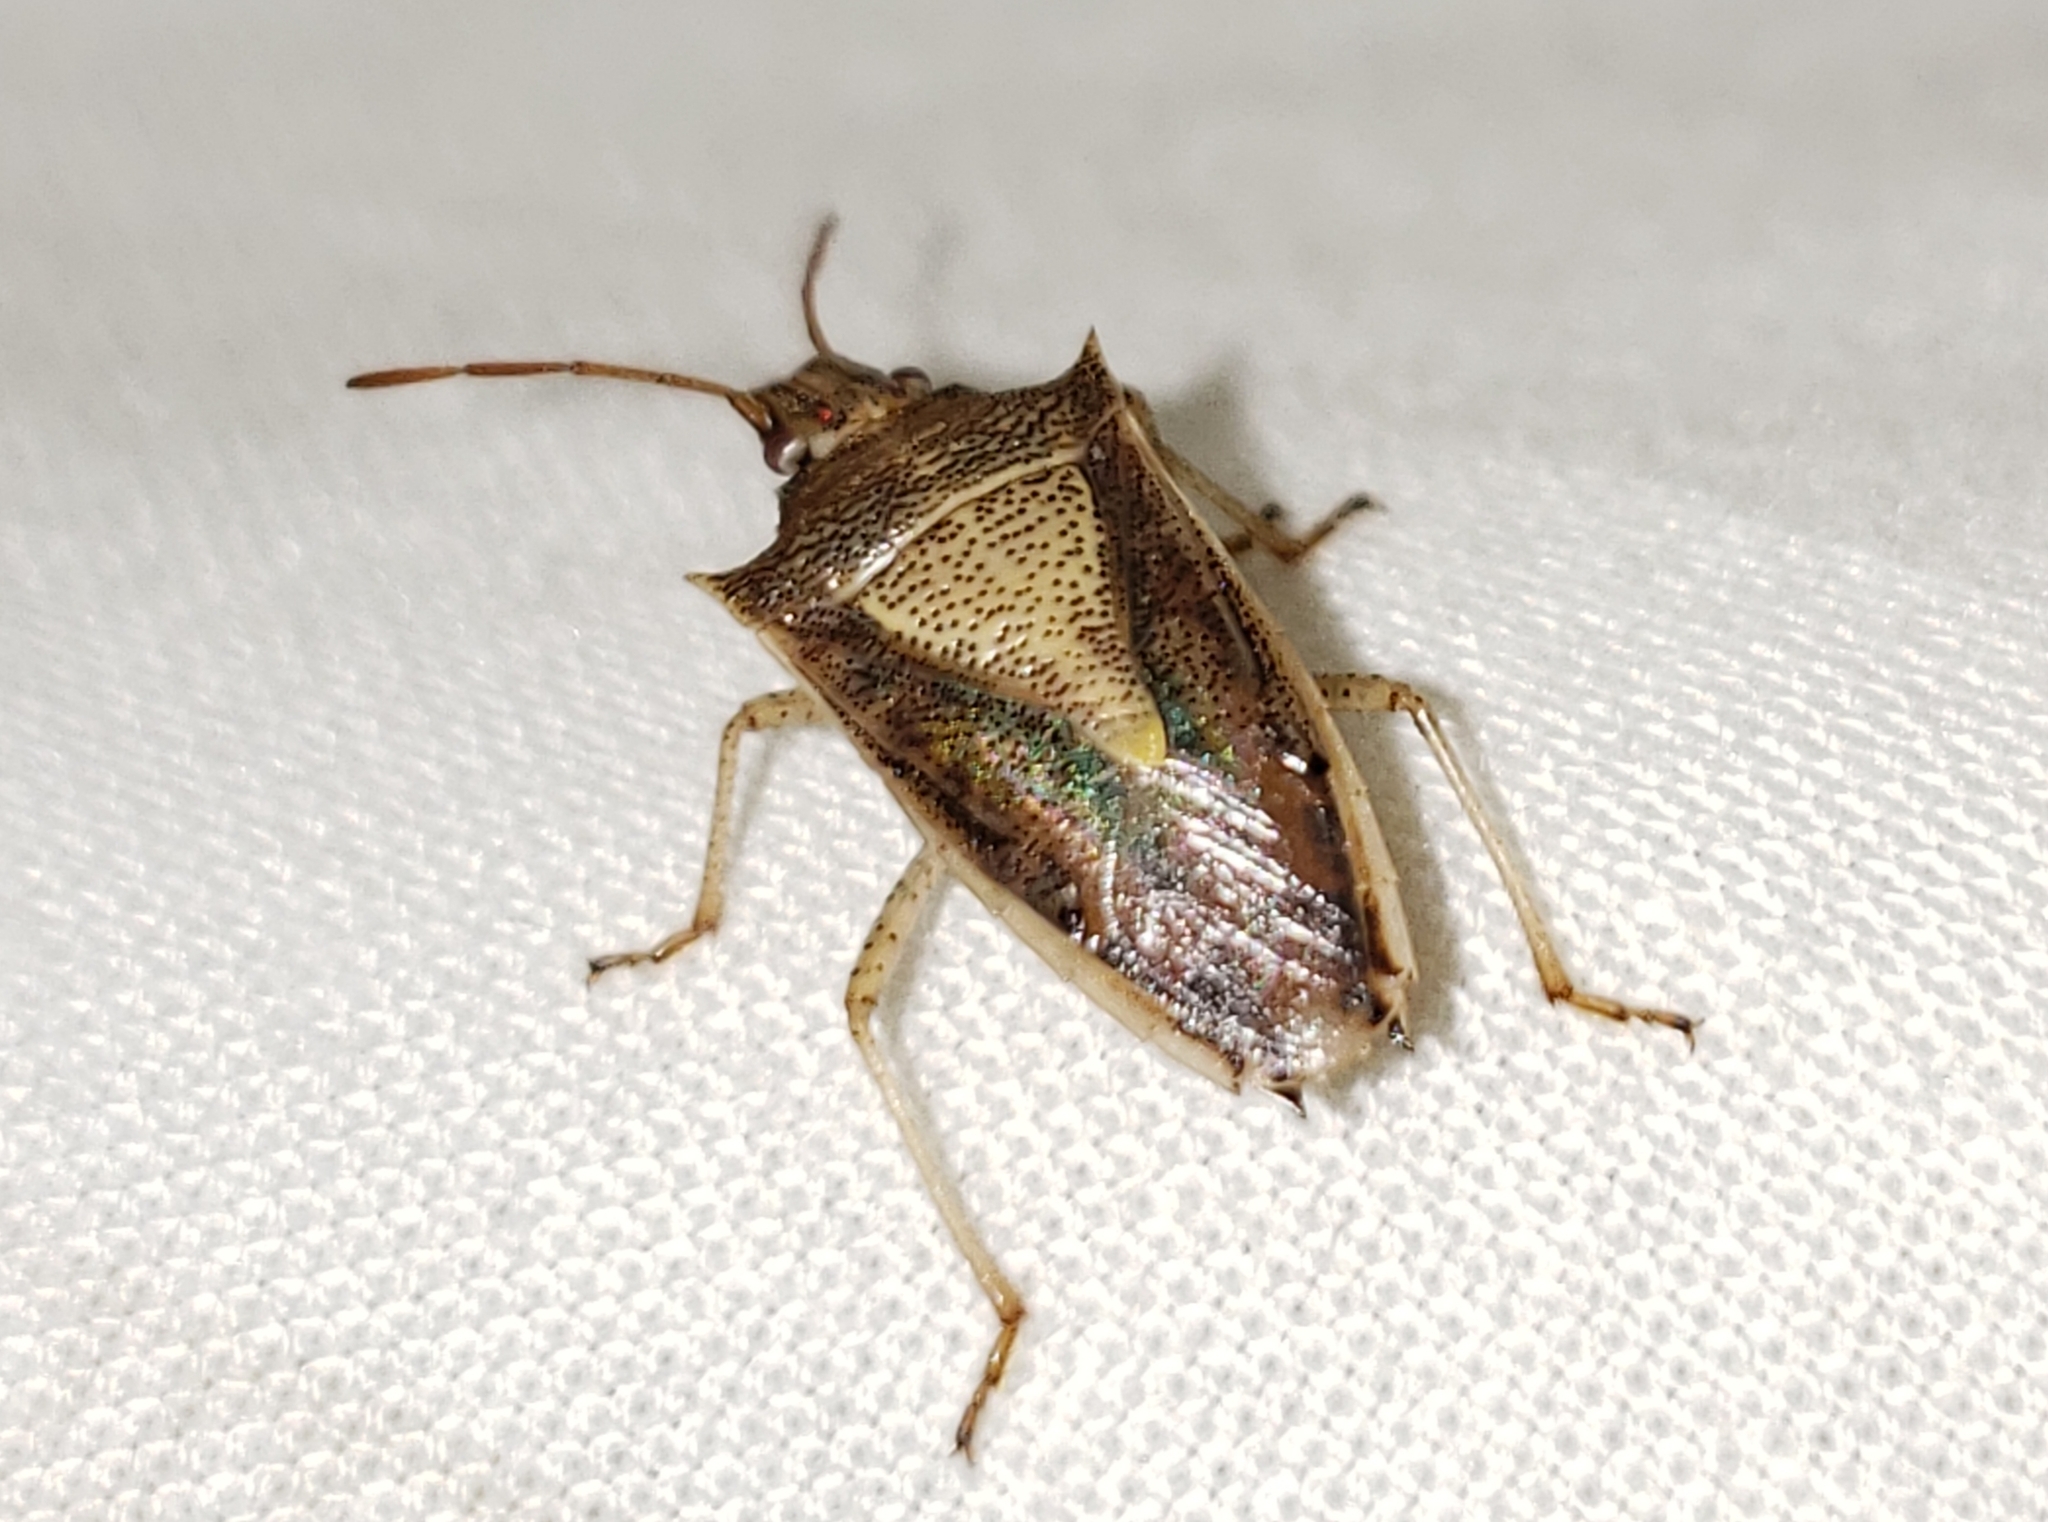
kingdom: Animalia
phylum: Arthropoda
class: Insecta
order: Hemiptera
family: Pentatomidae
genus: Oebalus
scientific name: Oebalus pugnax
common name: Rice stink bug
